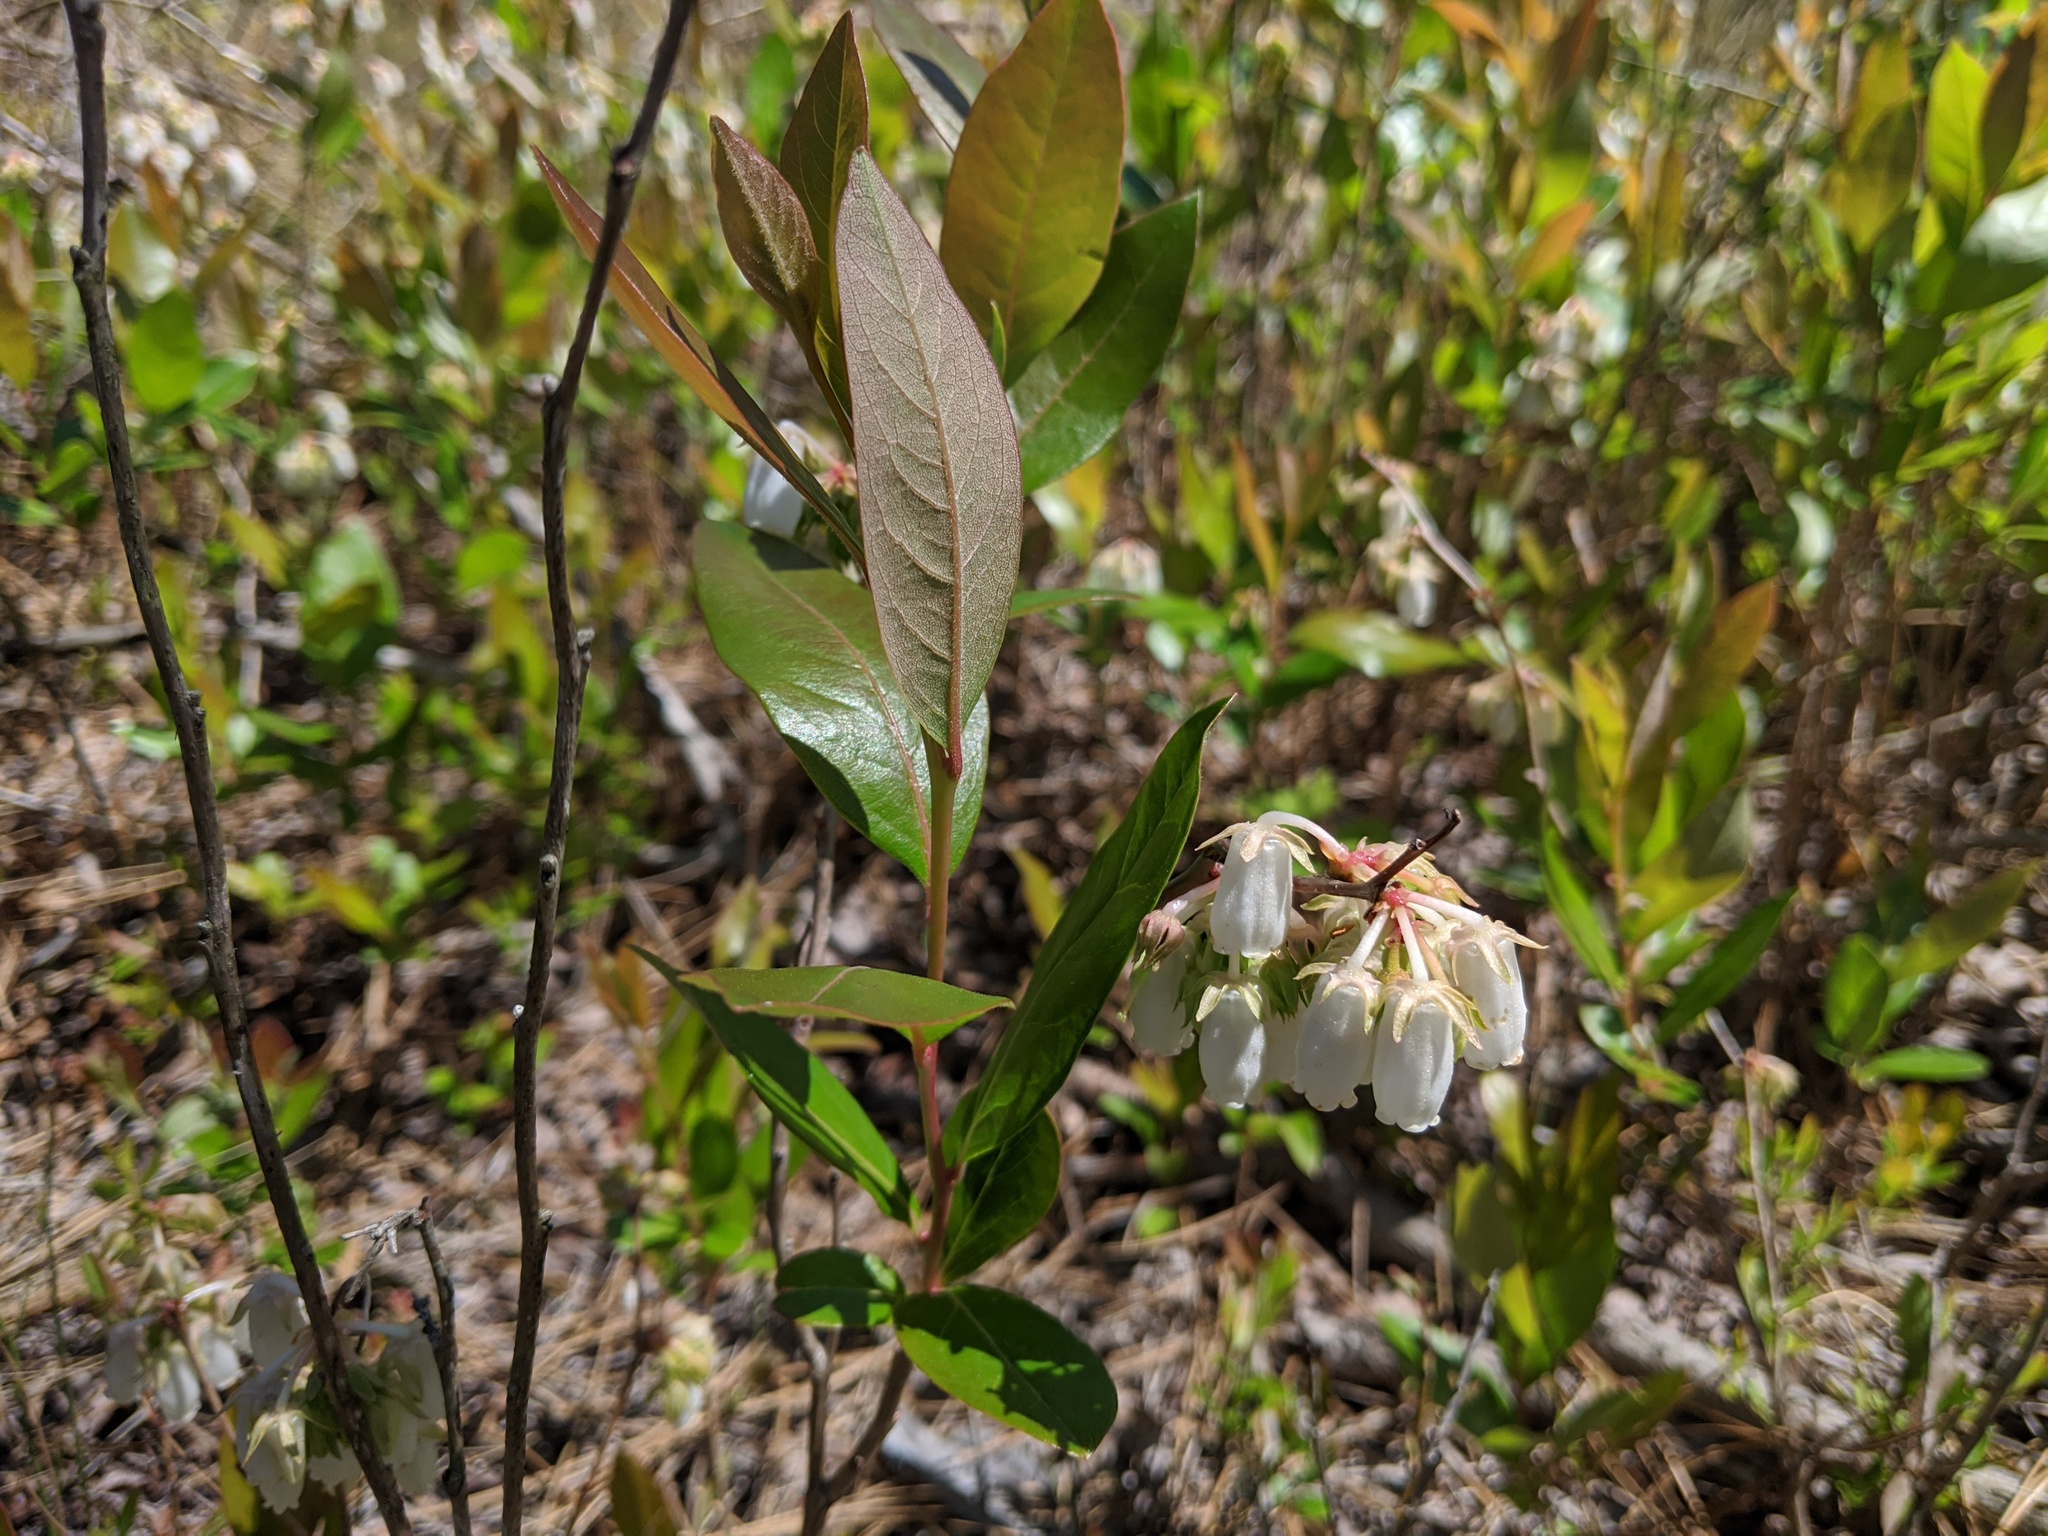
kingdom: Plantae
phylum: Tracheophyta
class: Magnoliopsida
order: Ericales
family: Ericaceae
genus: Lyonia
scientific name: Lyonia mariana
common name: Staggerbush
